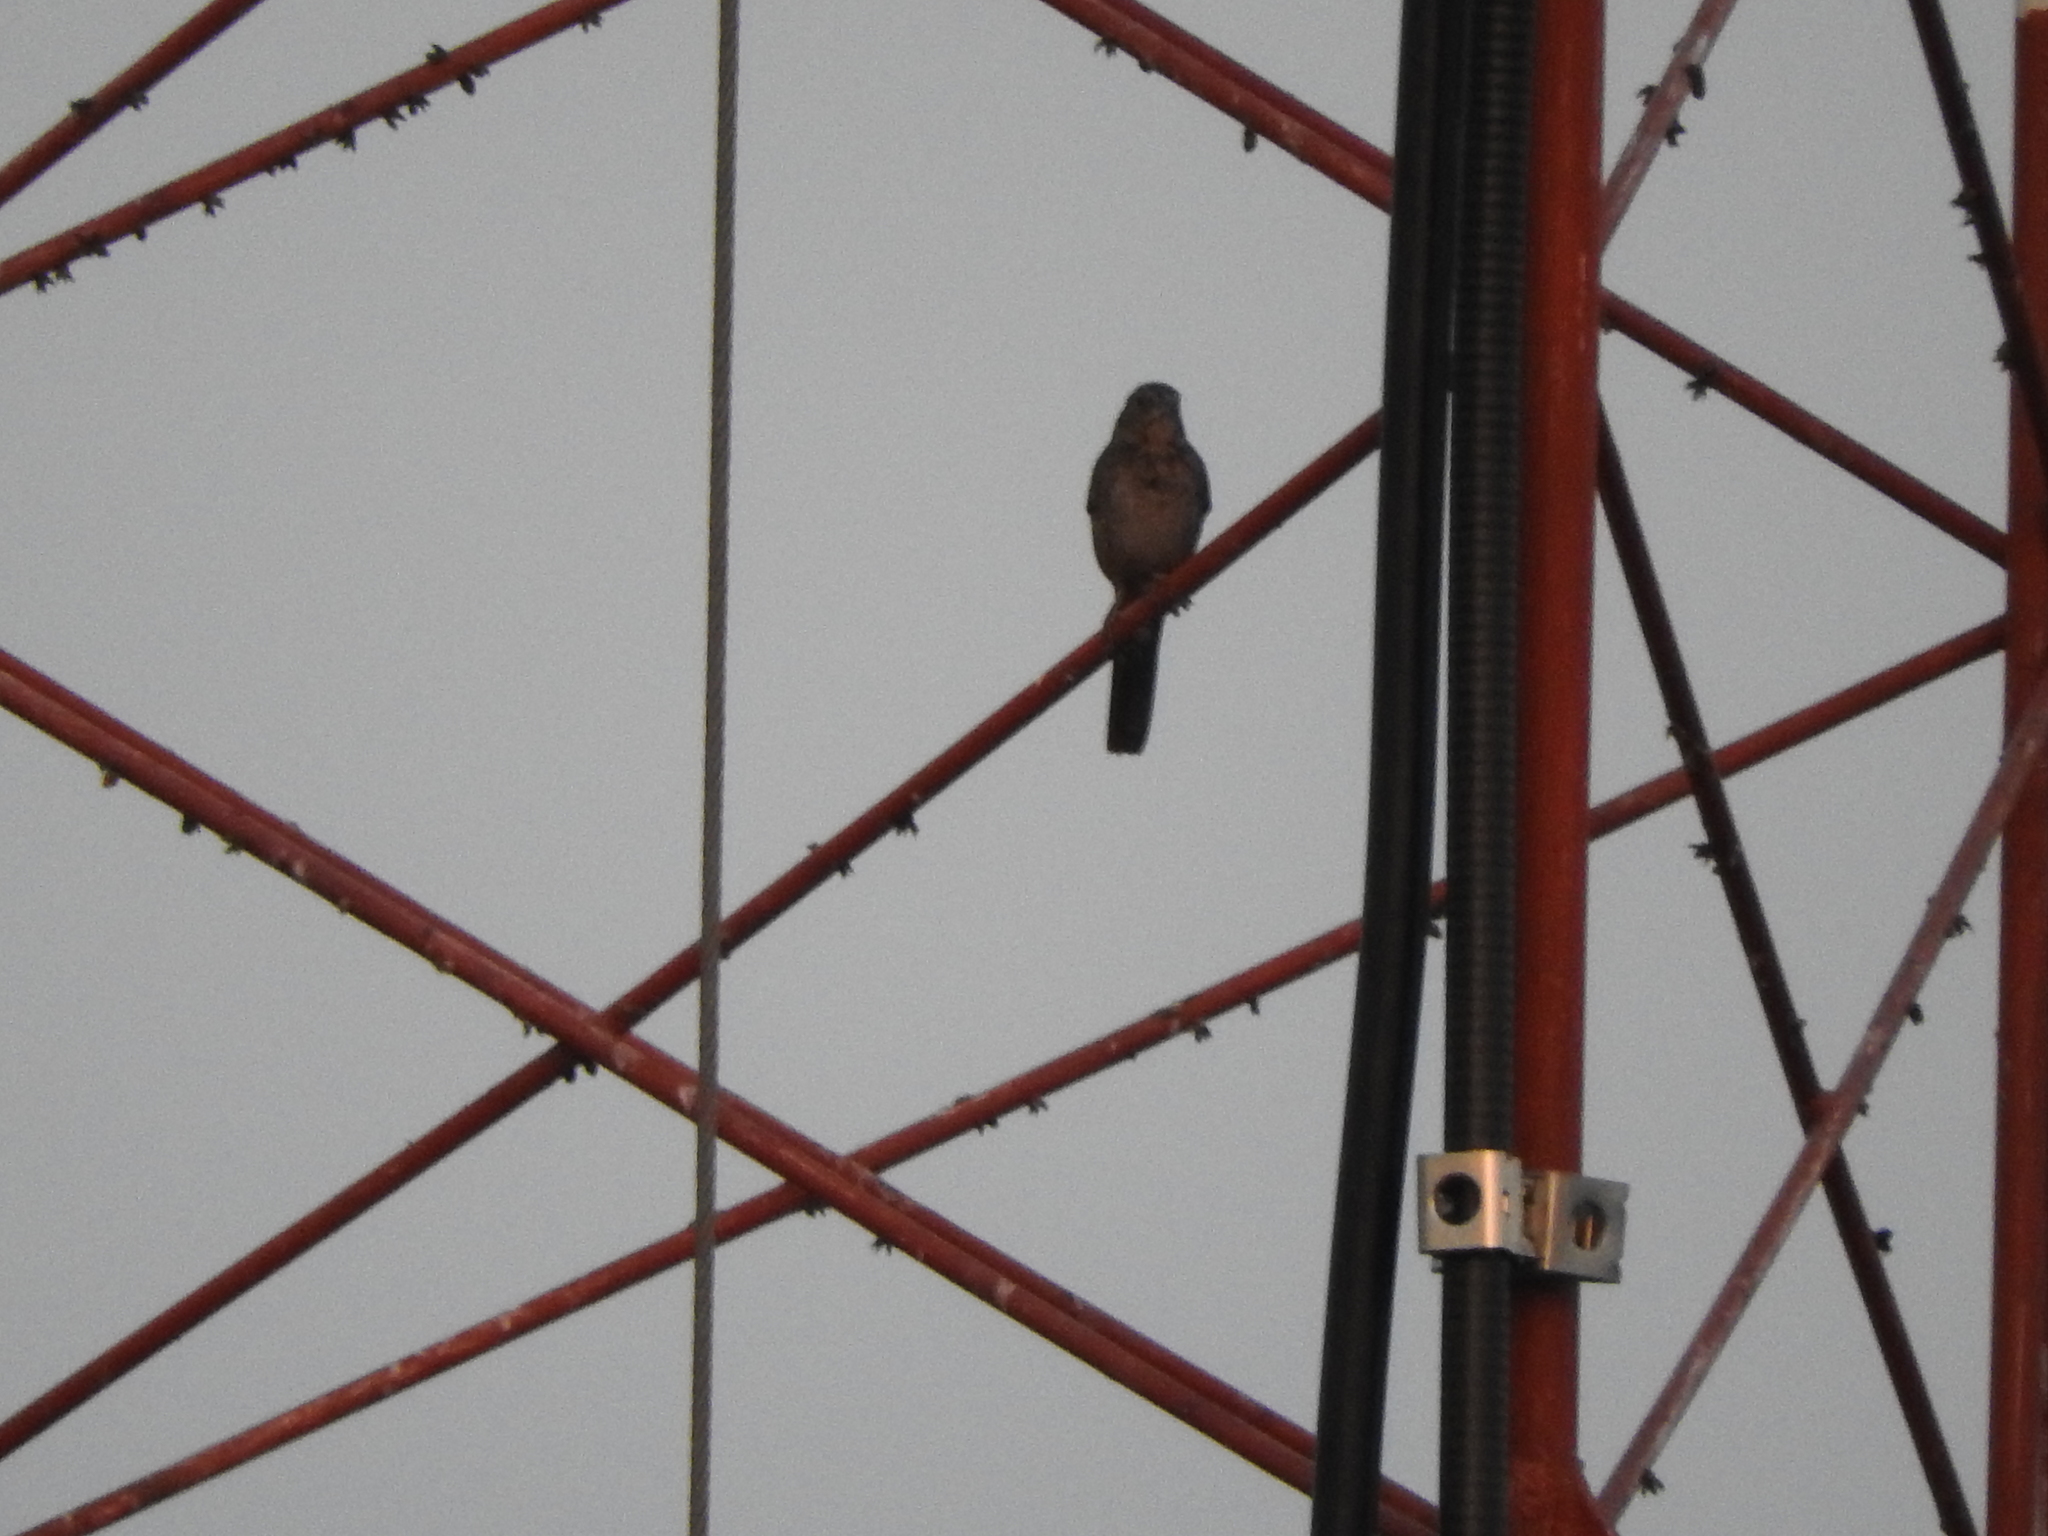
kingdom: Animalia
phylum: Chordata
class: Aves
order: Passeriformes
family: Passerellidae
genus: Melozone
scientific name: Melozone fusca
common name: Canyon towhee
